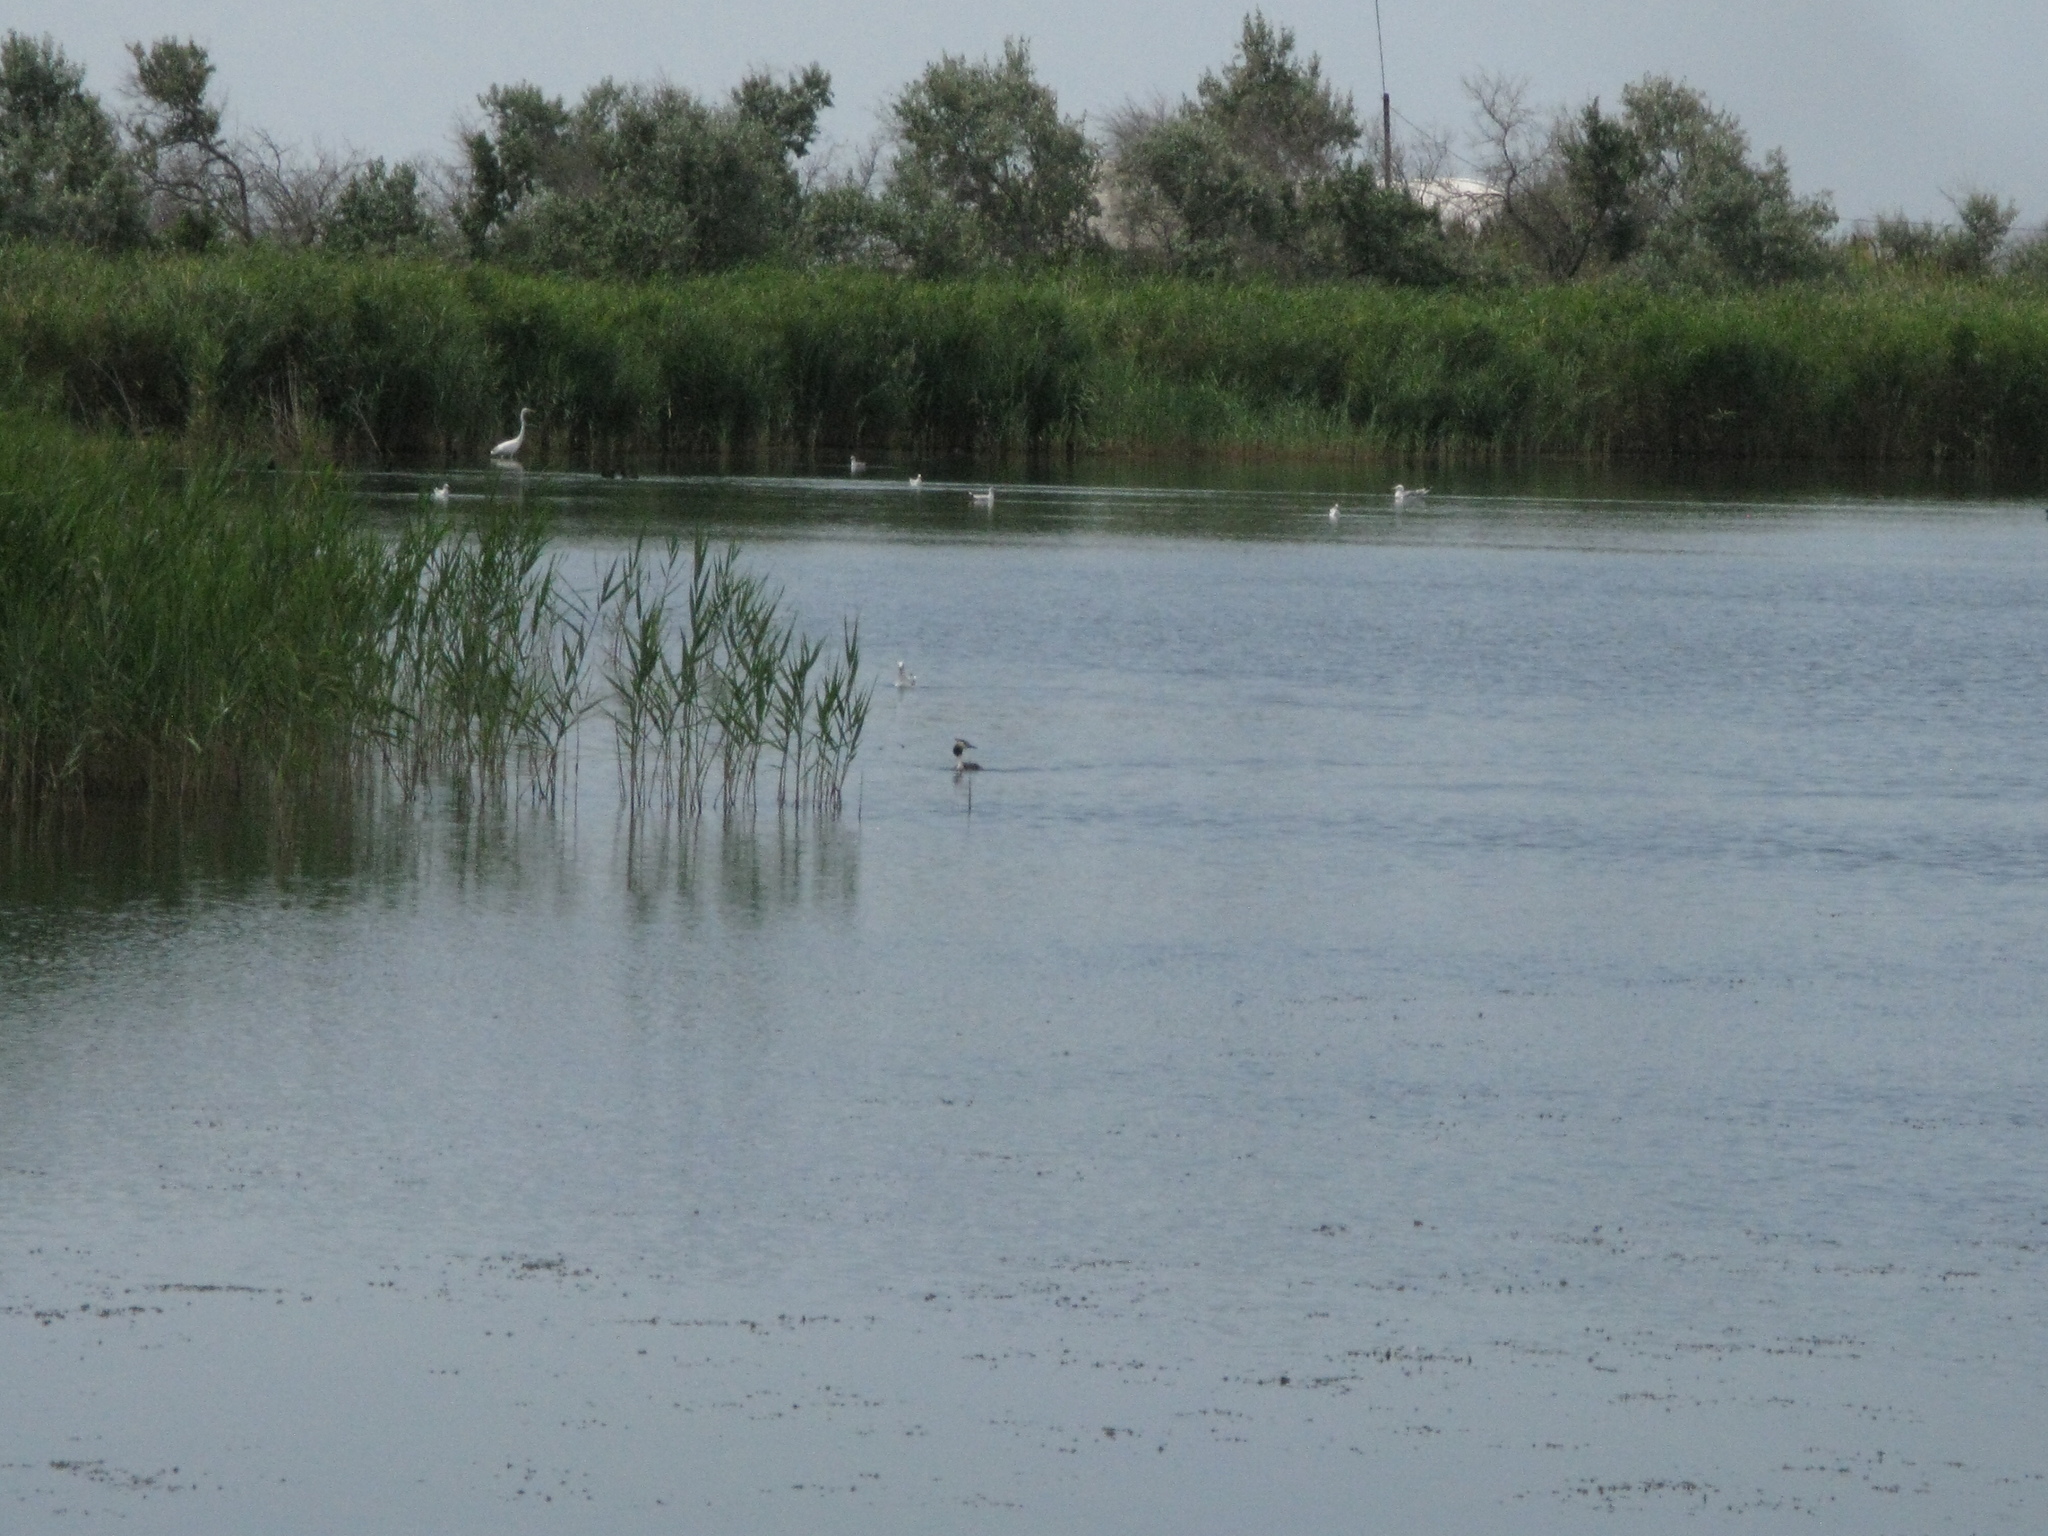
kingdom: Animalia
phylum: Chordata
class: Aves
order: Podicipediformes
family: Podicipedidae
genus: Podiceps
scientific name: Podiceps cristatus
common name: Great crested grebe
